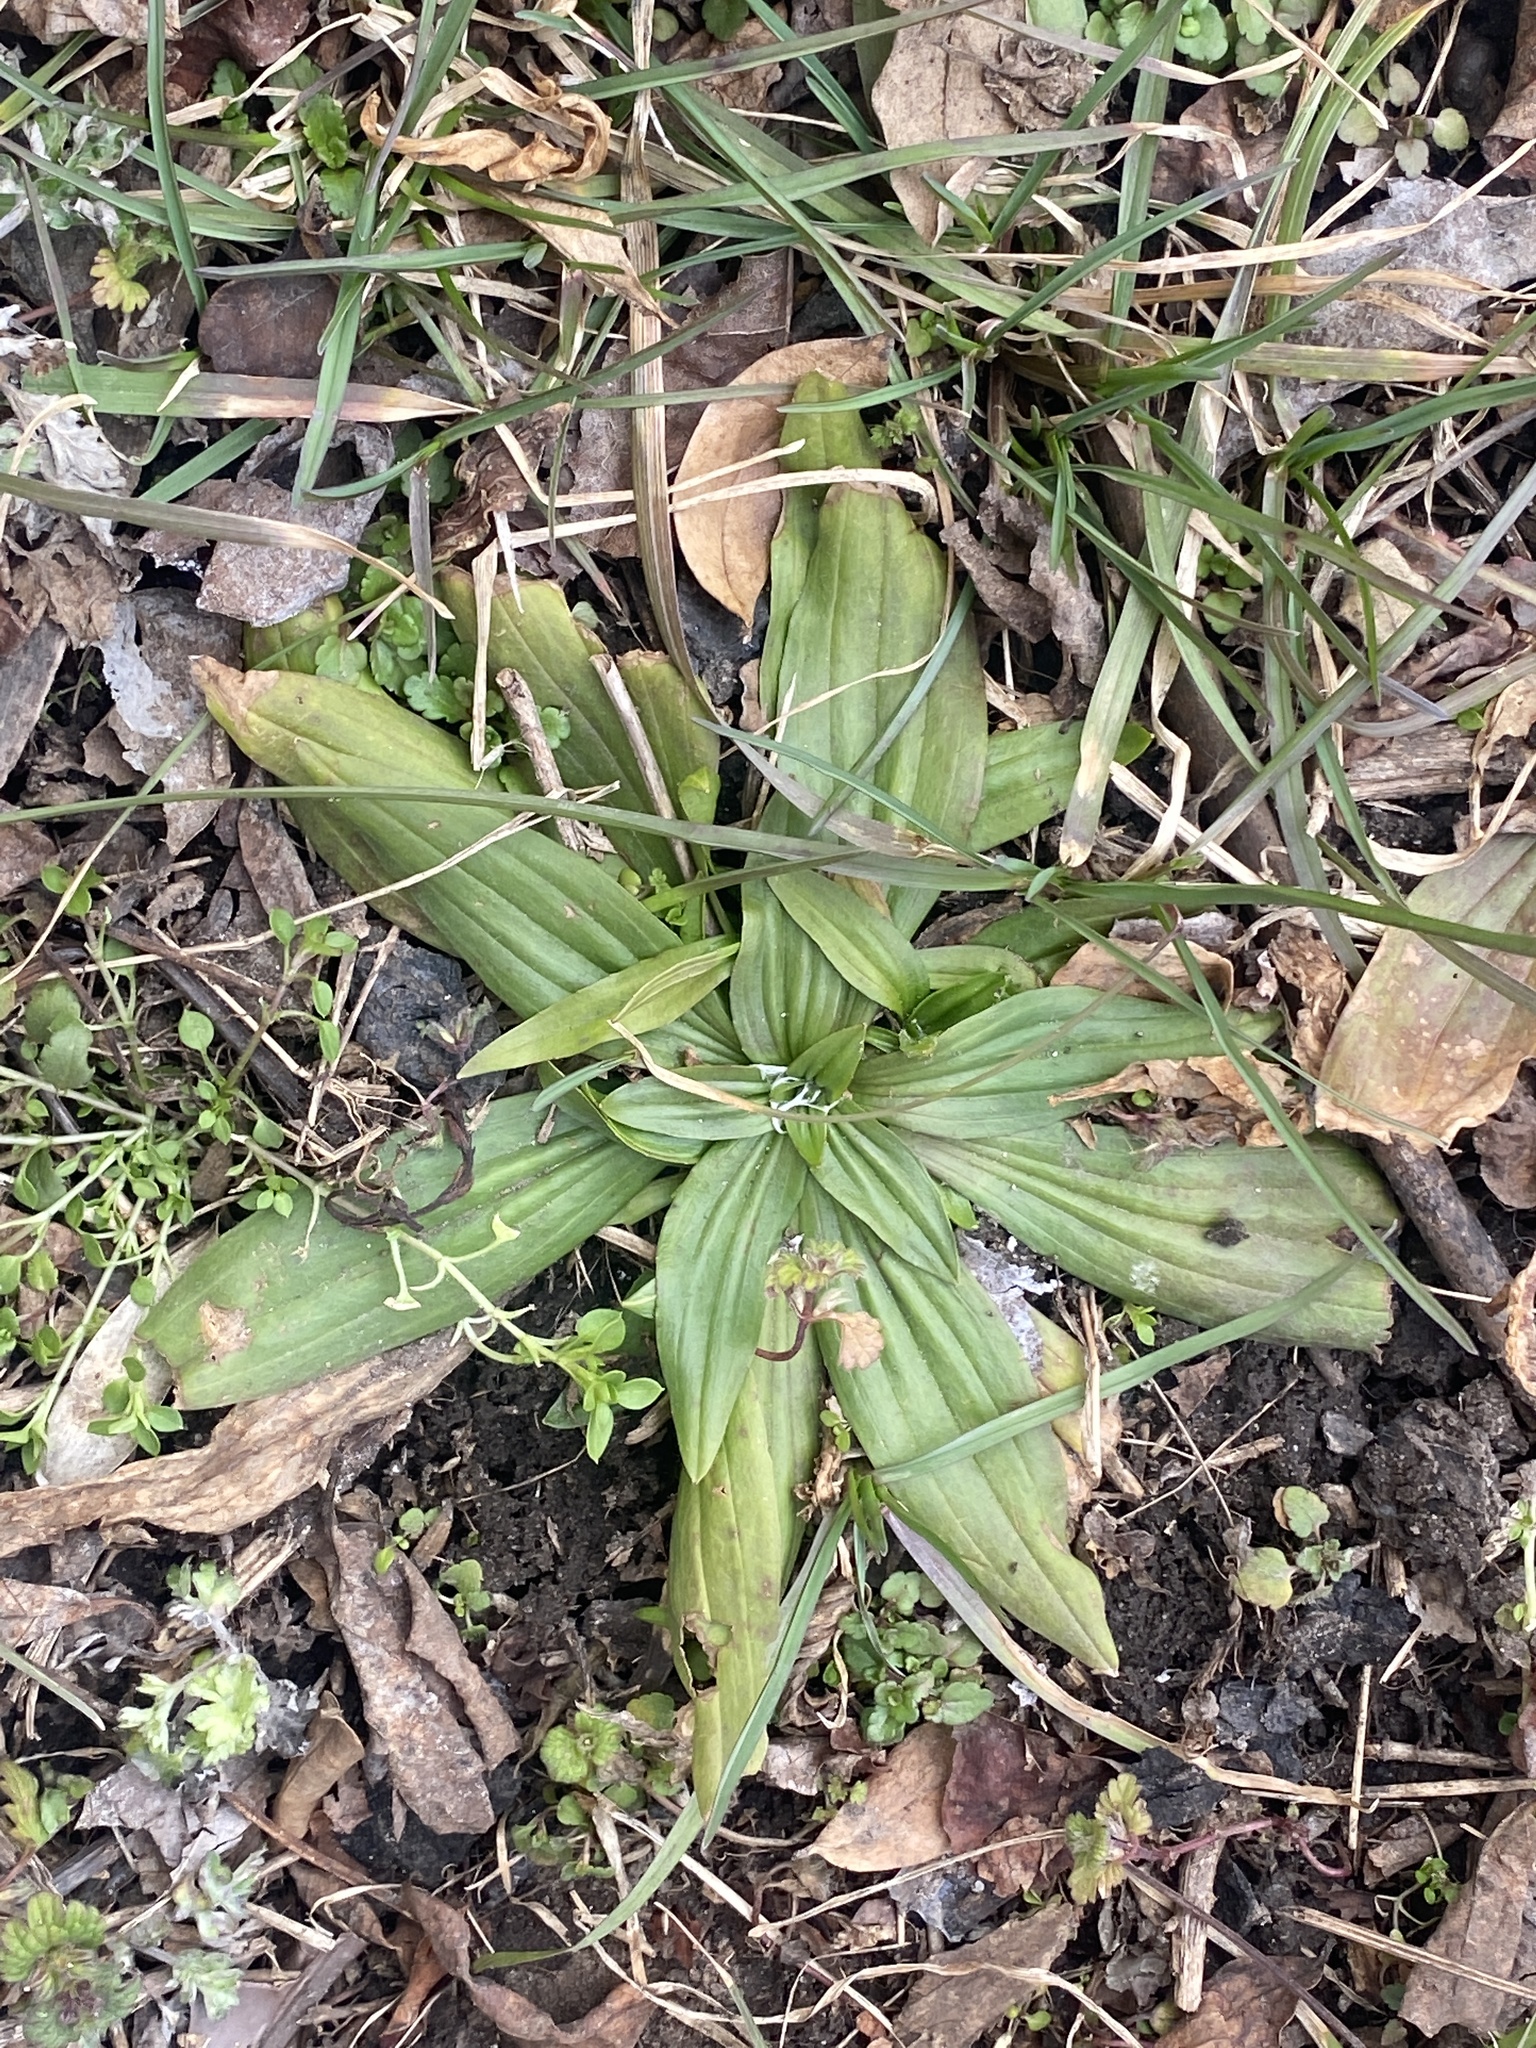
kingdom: Plantae
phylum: Tracheophyta
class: Magnoliopsida
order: Lamiales
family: Plantaginaceae
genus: Plantago
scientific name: Plantago lanceolata
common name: Ribwort plantain
